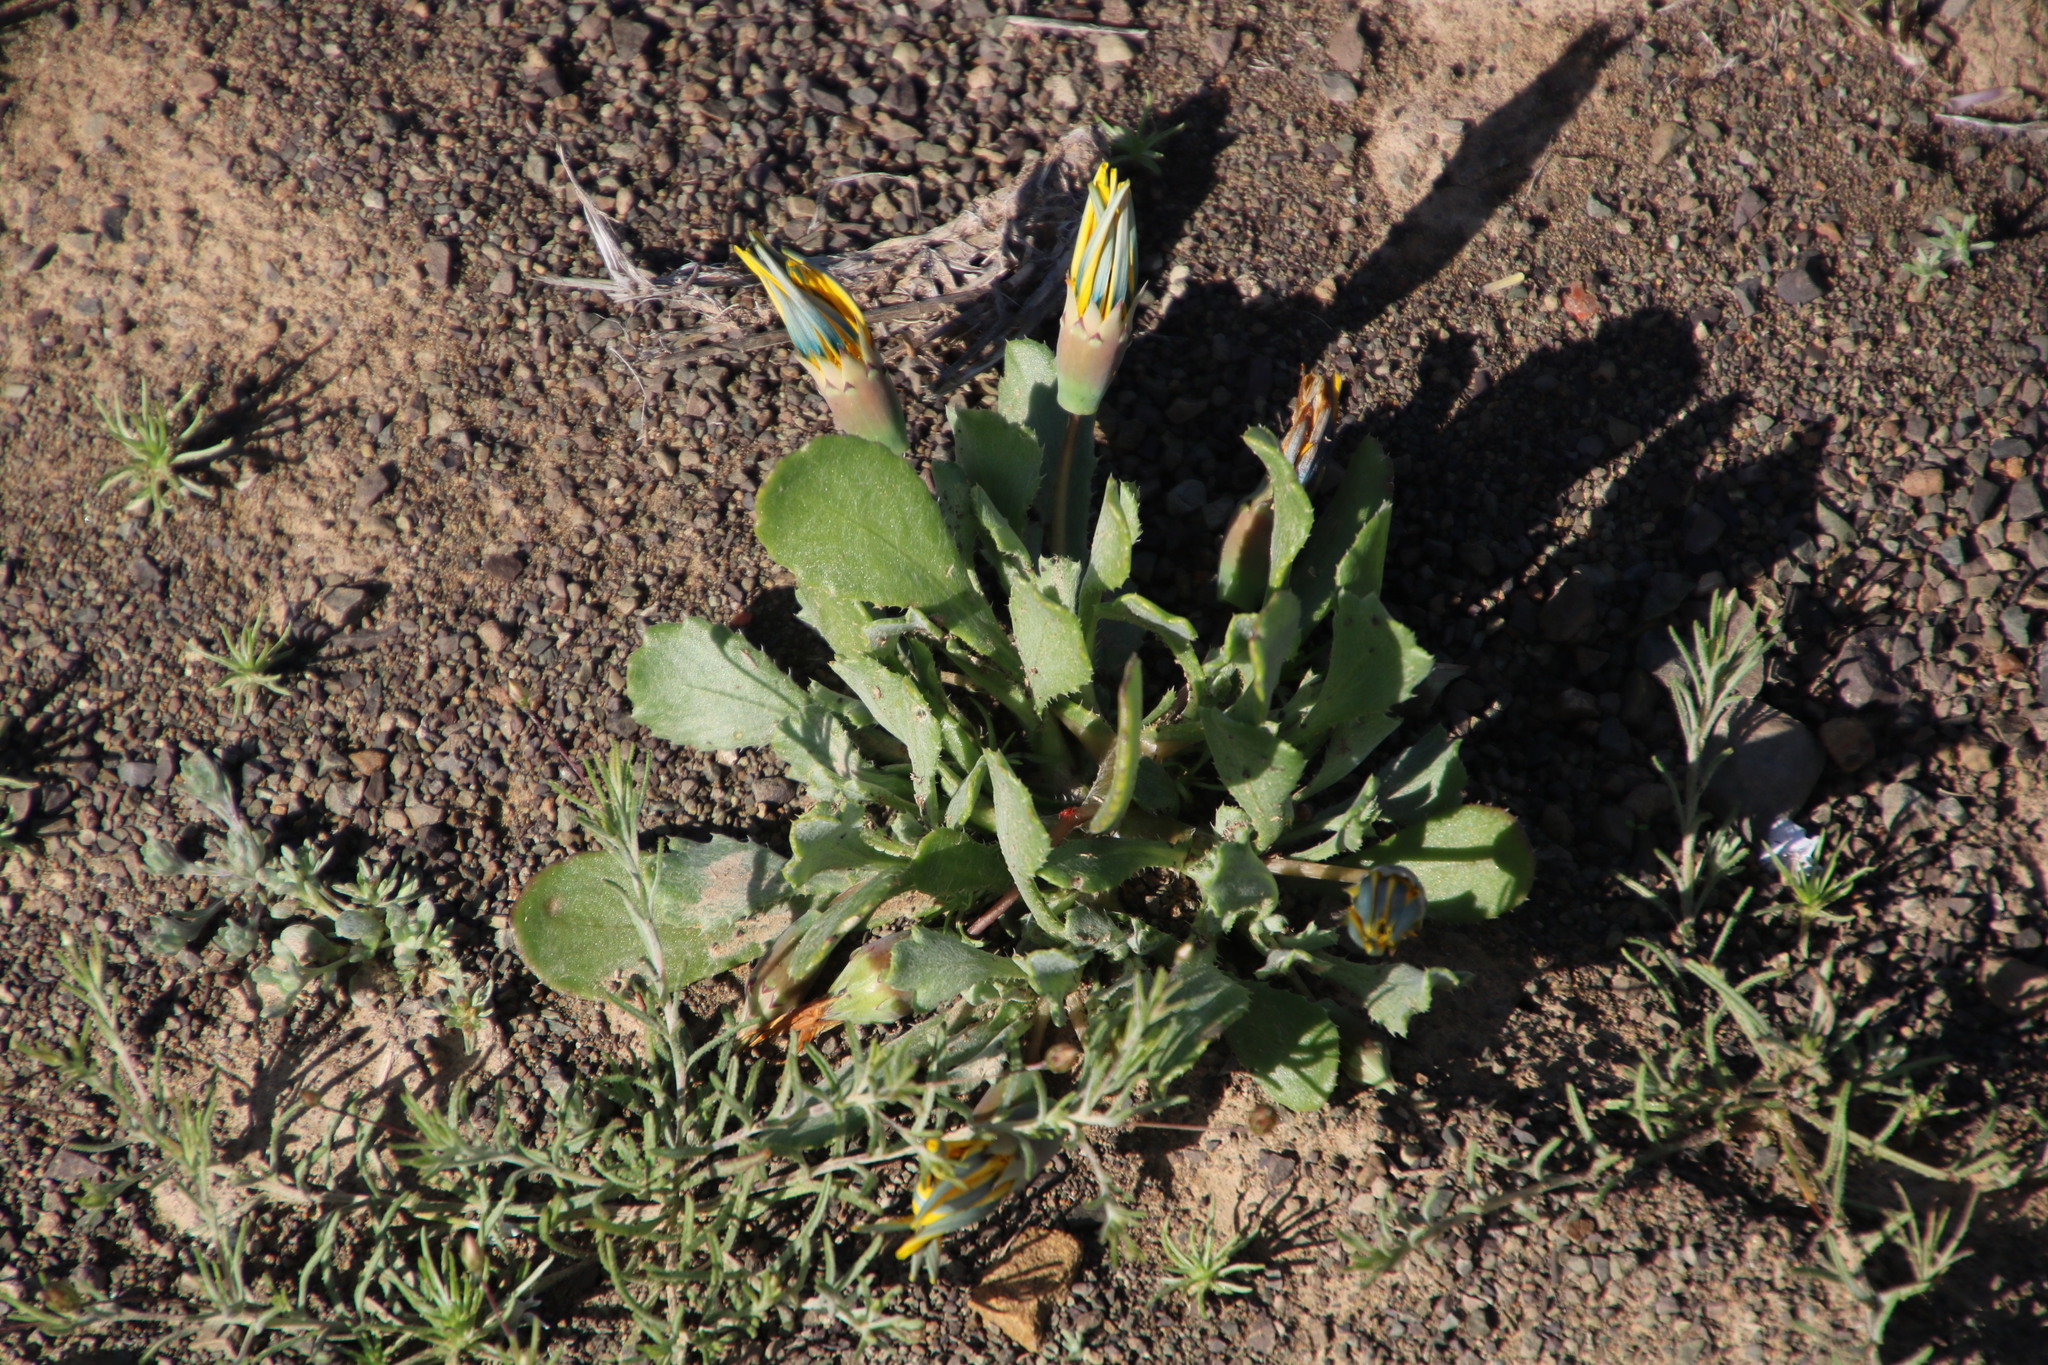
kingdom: Plantae
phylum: Tracheophyta
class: Magnoliopsida
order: Asterales
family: Asteraceae
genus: Gazania
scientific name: Gazania lichtensteinii
